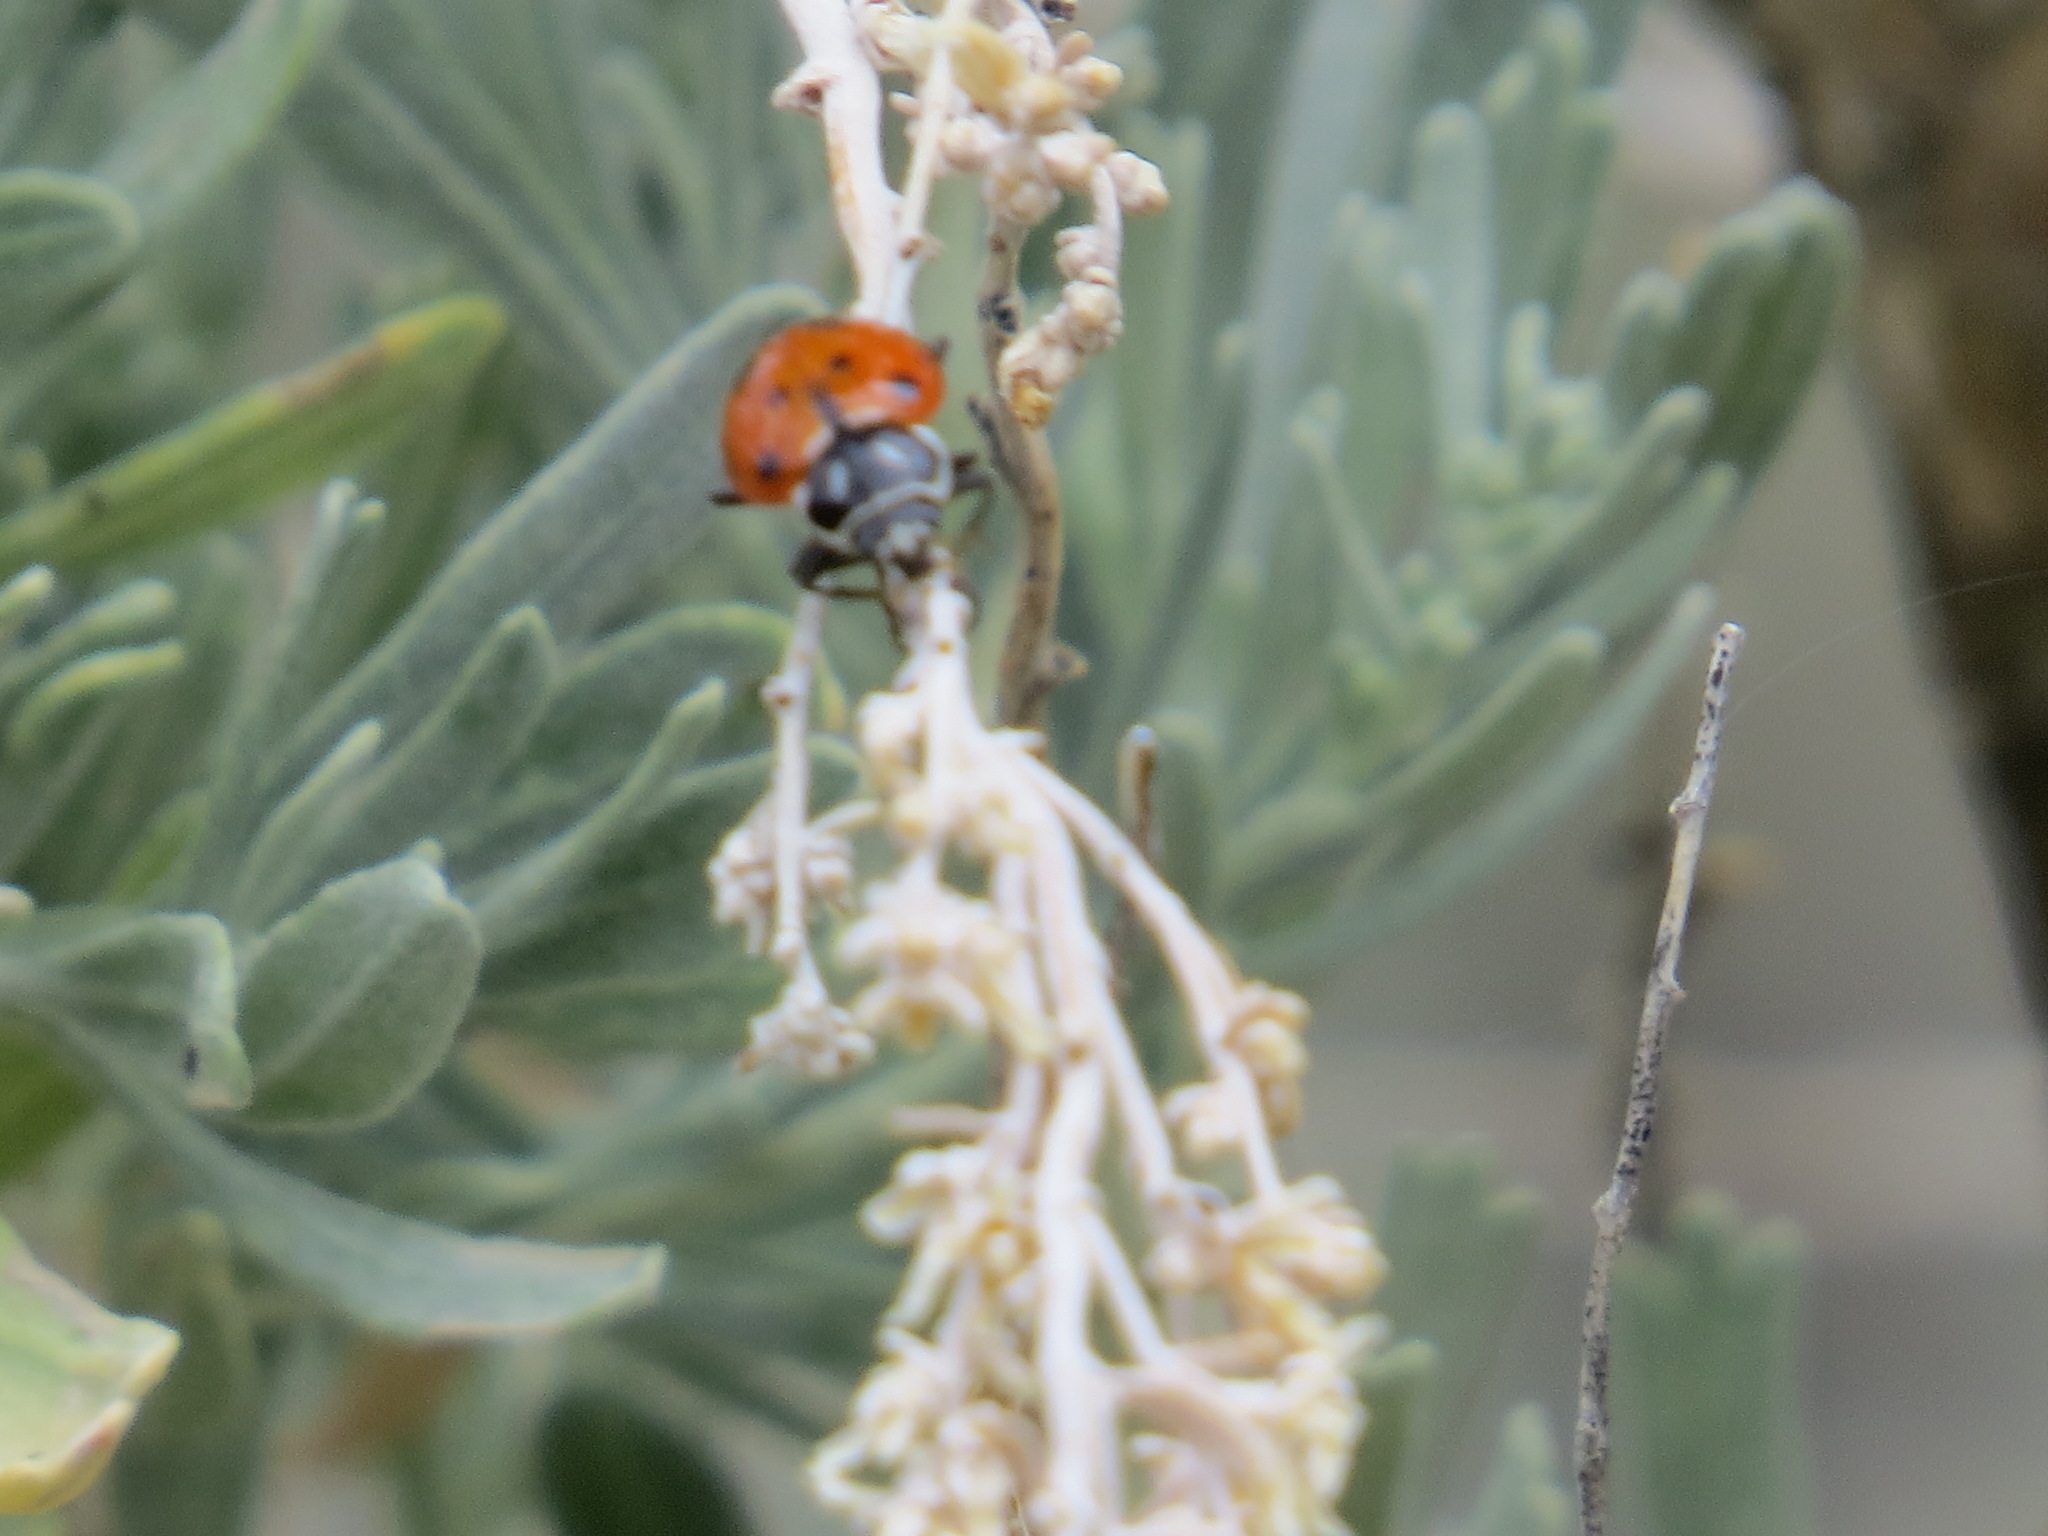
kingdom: Animalia
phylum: Arthropoda
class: Insecta
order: Coleoptera
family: Coccinellidae
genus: Hippodamia
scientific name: Hippodamia convergens
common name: Convergent lady beetle
